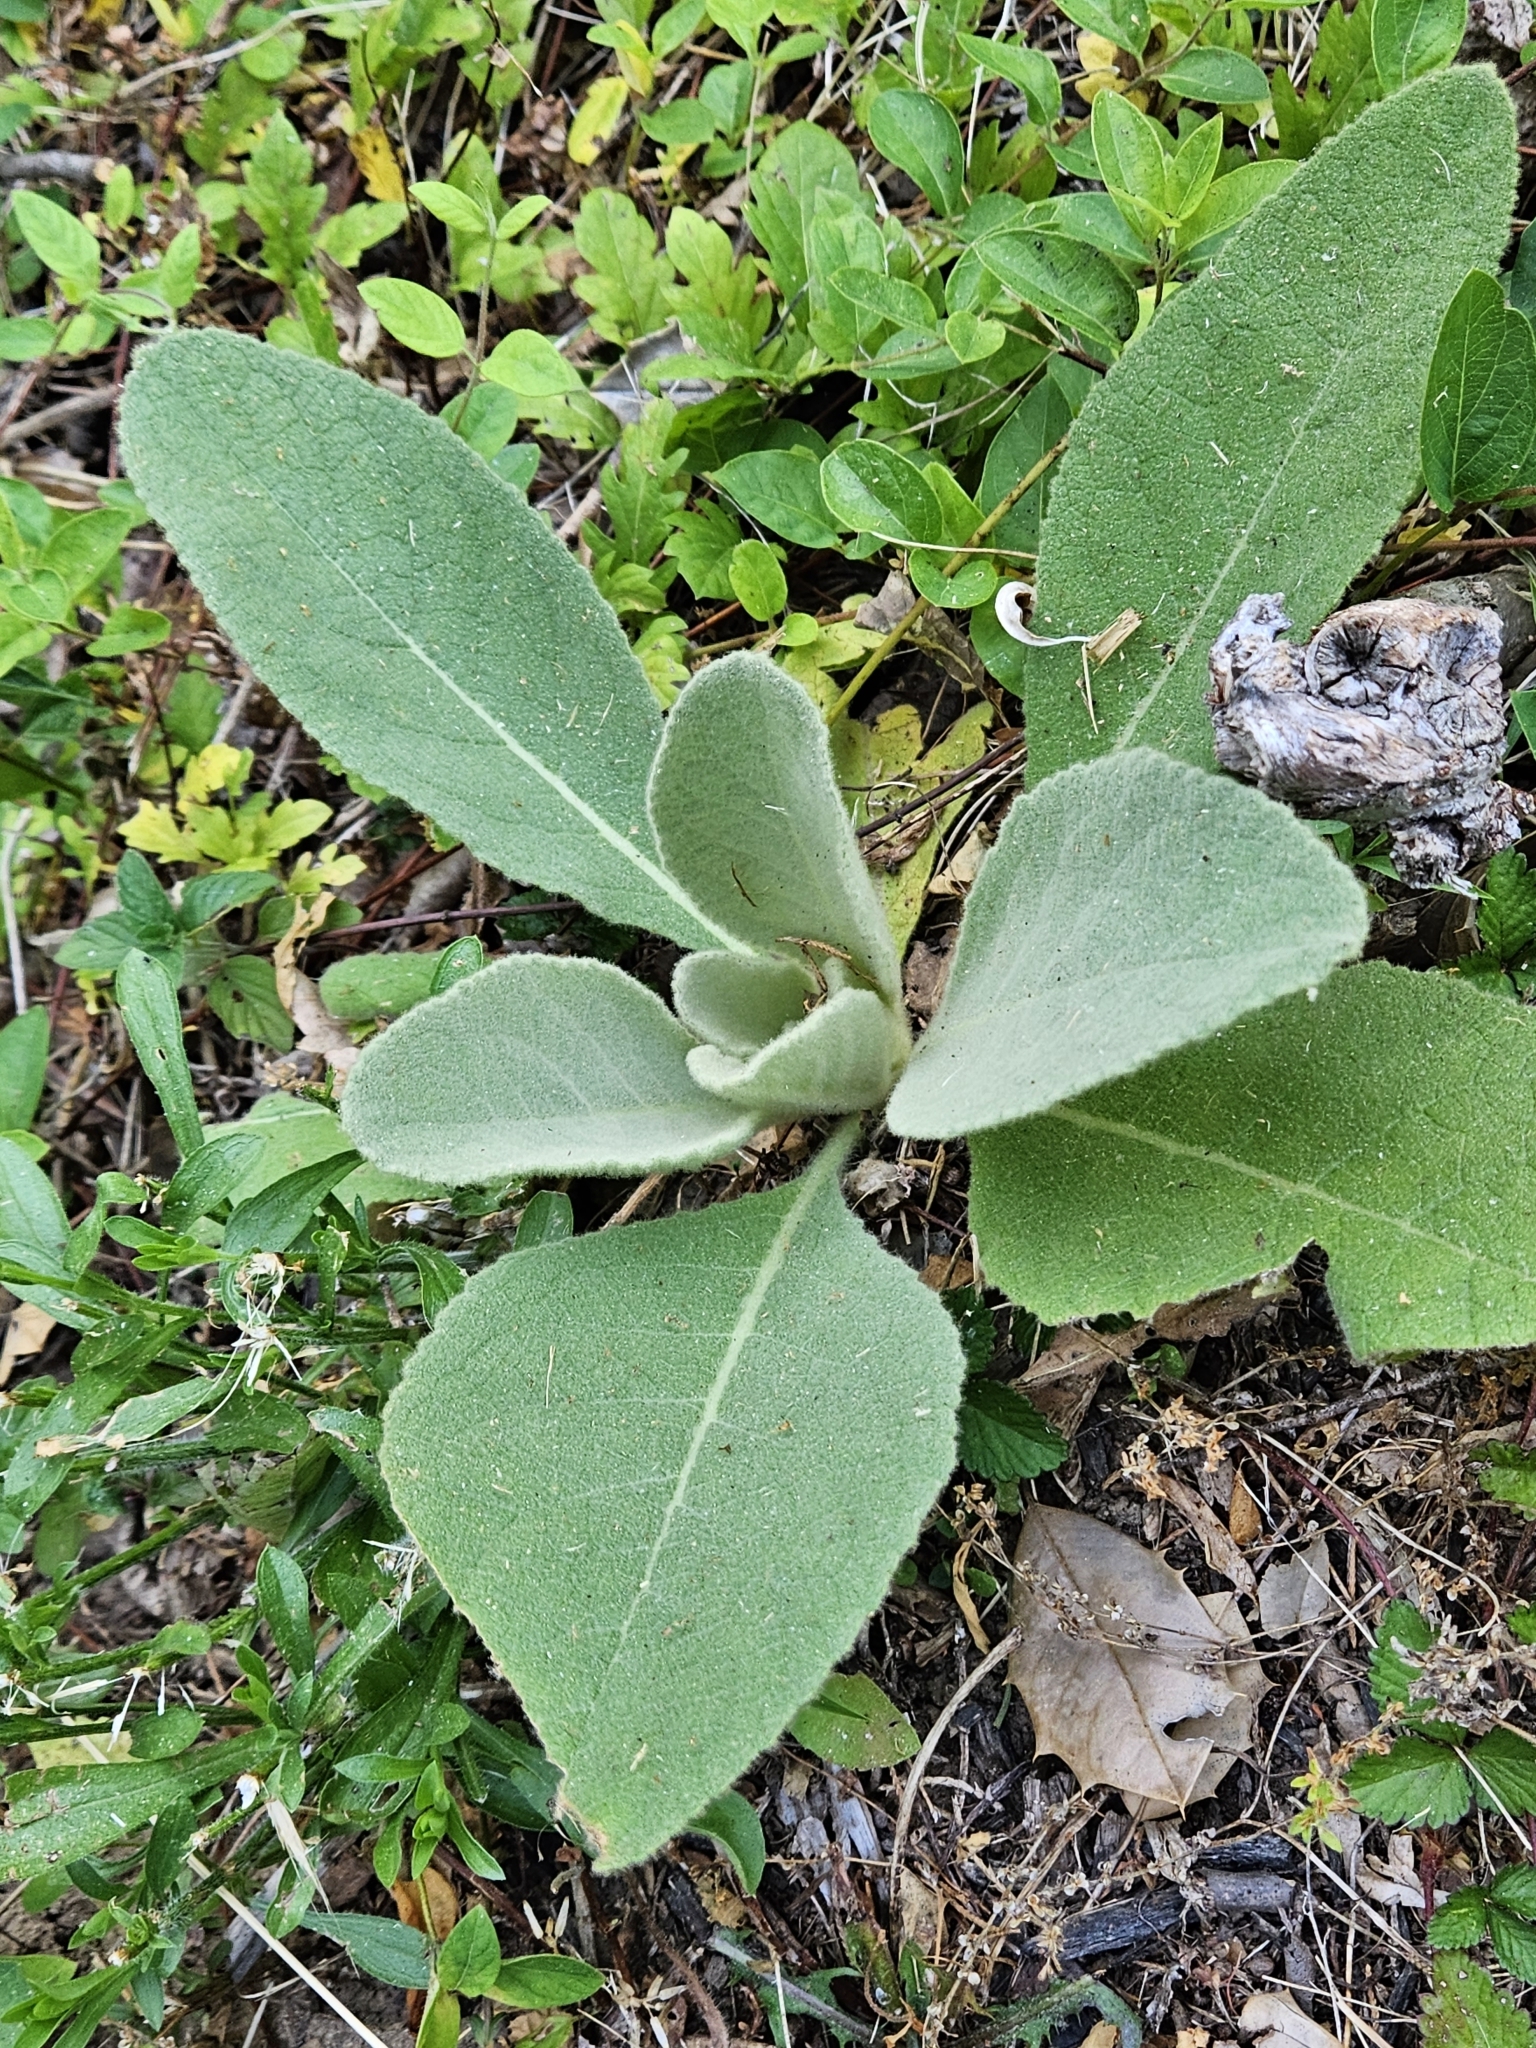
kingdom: Plantae
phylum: Tracheophyta
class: Magnoliopsida
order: Lamiales
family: Scrophulariaceae
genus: Verbascum
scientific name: Verbascum thapsus
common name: Common mullein
